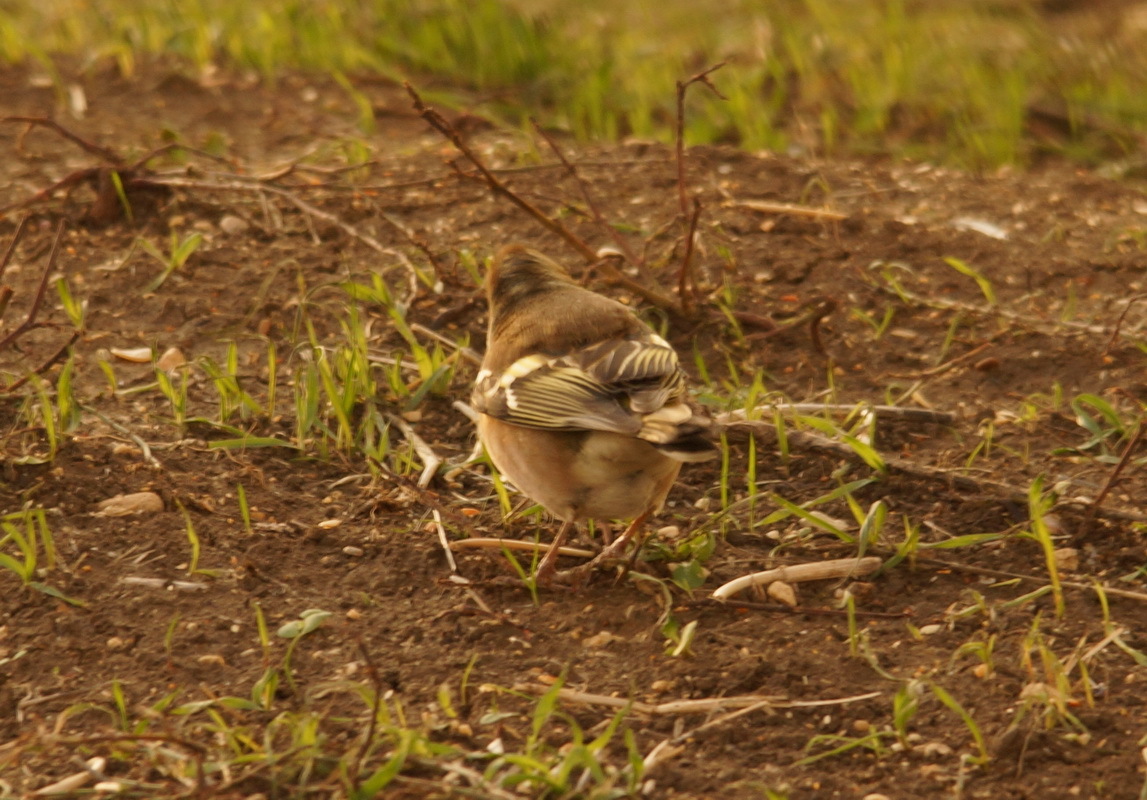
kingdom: Animalia
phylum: Chordata
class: Aves
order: Passeriformes
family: Fringillidae
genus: Fringilla
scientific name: Fringilla coelebs
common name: Common chaffinch
